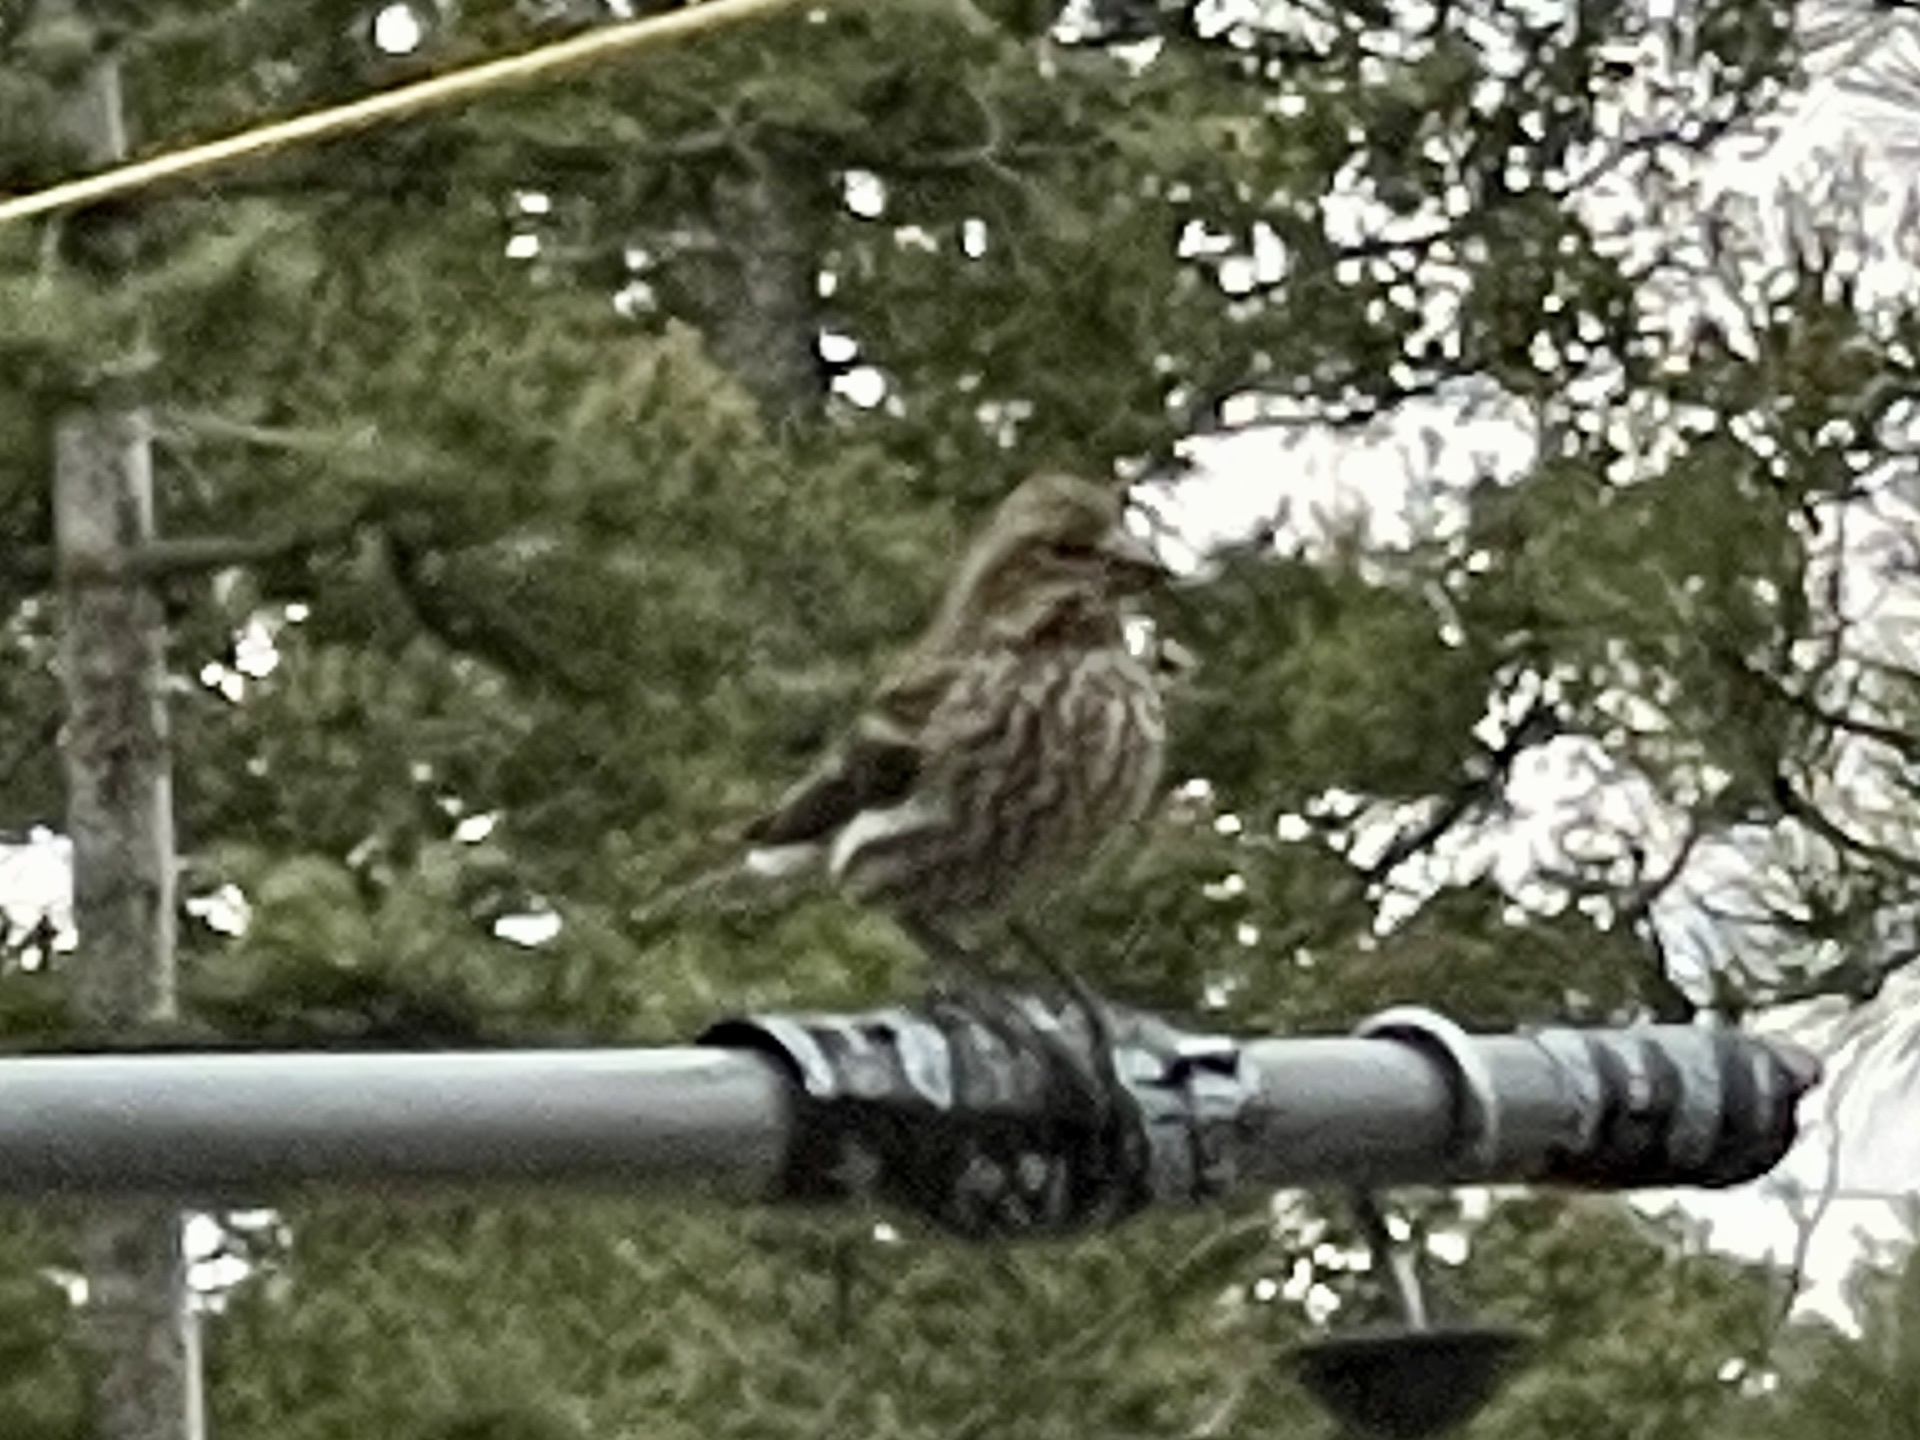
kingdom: Animalia
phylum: Chordata
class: Aves
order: Passeriformes
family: Fringillidae
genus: Haemorhous
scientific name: Haemorhous cassinii
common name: Cassin's finch
